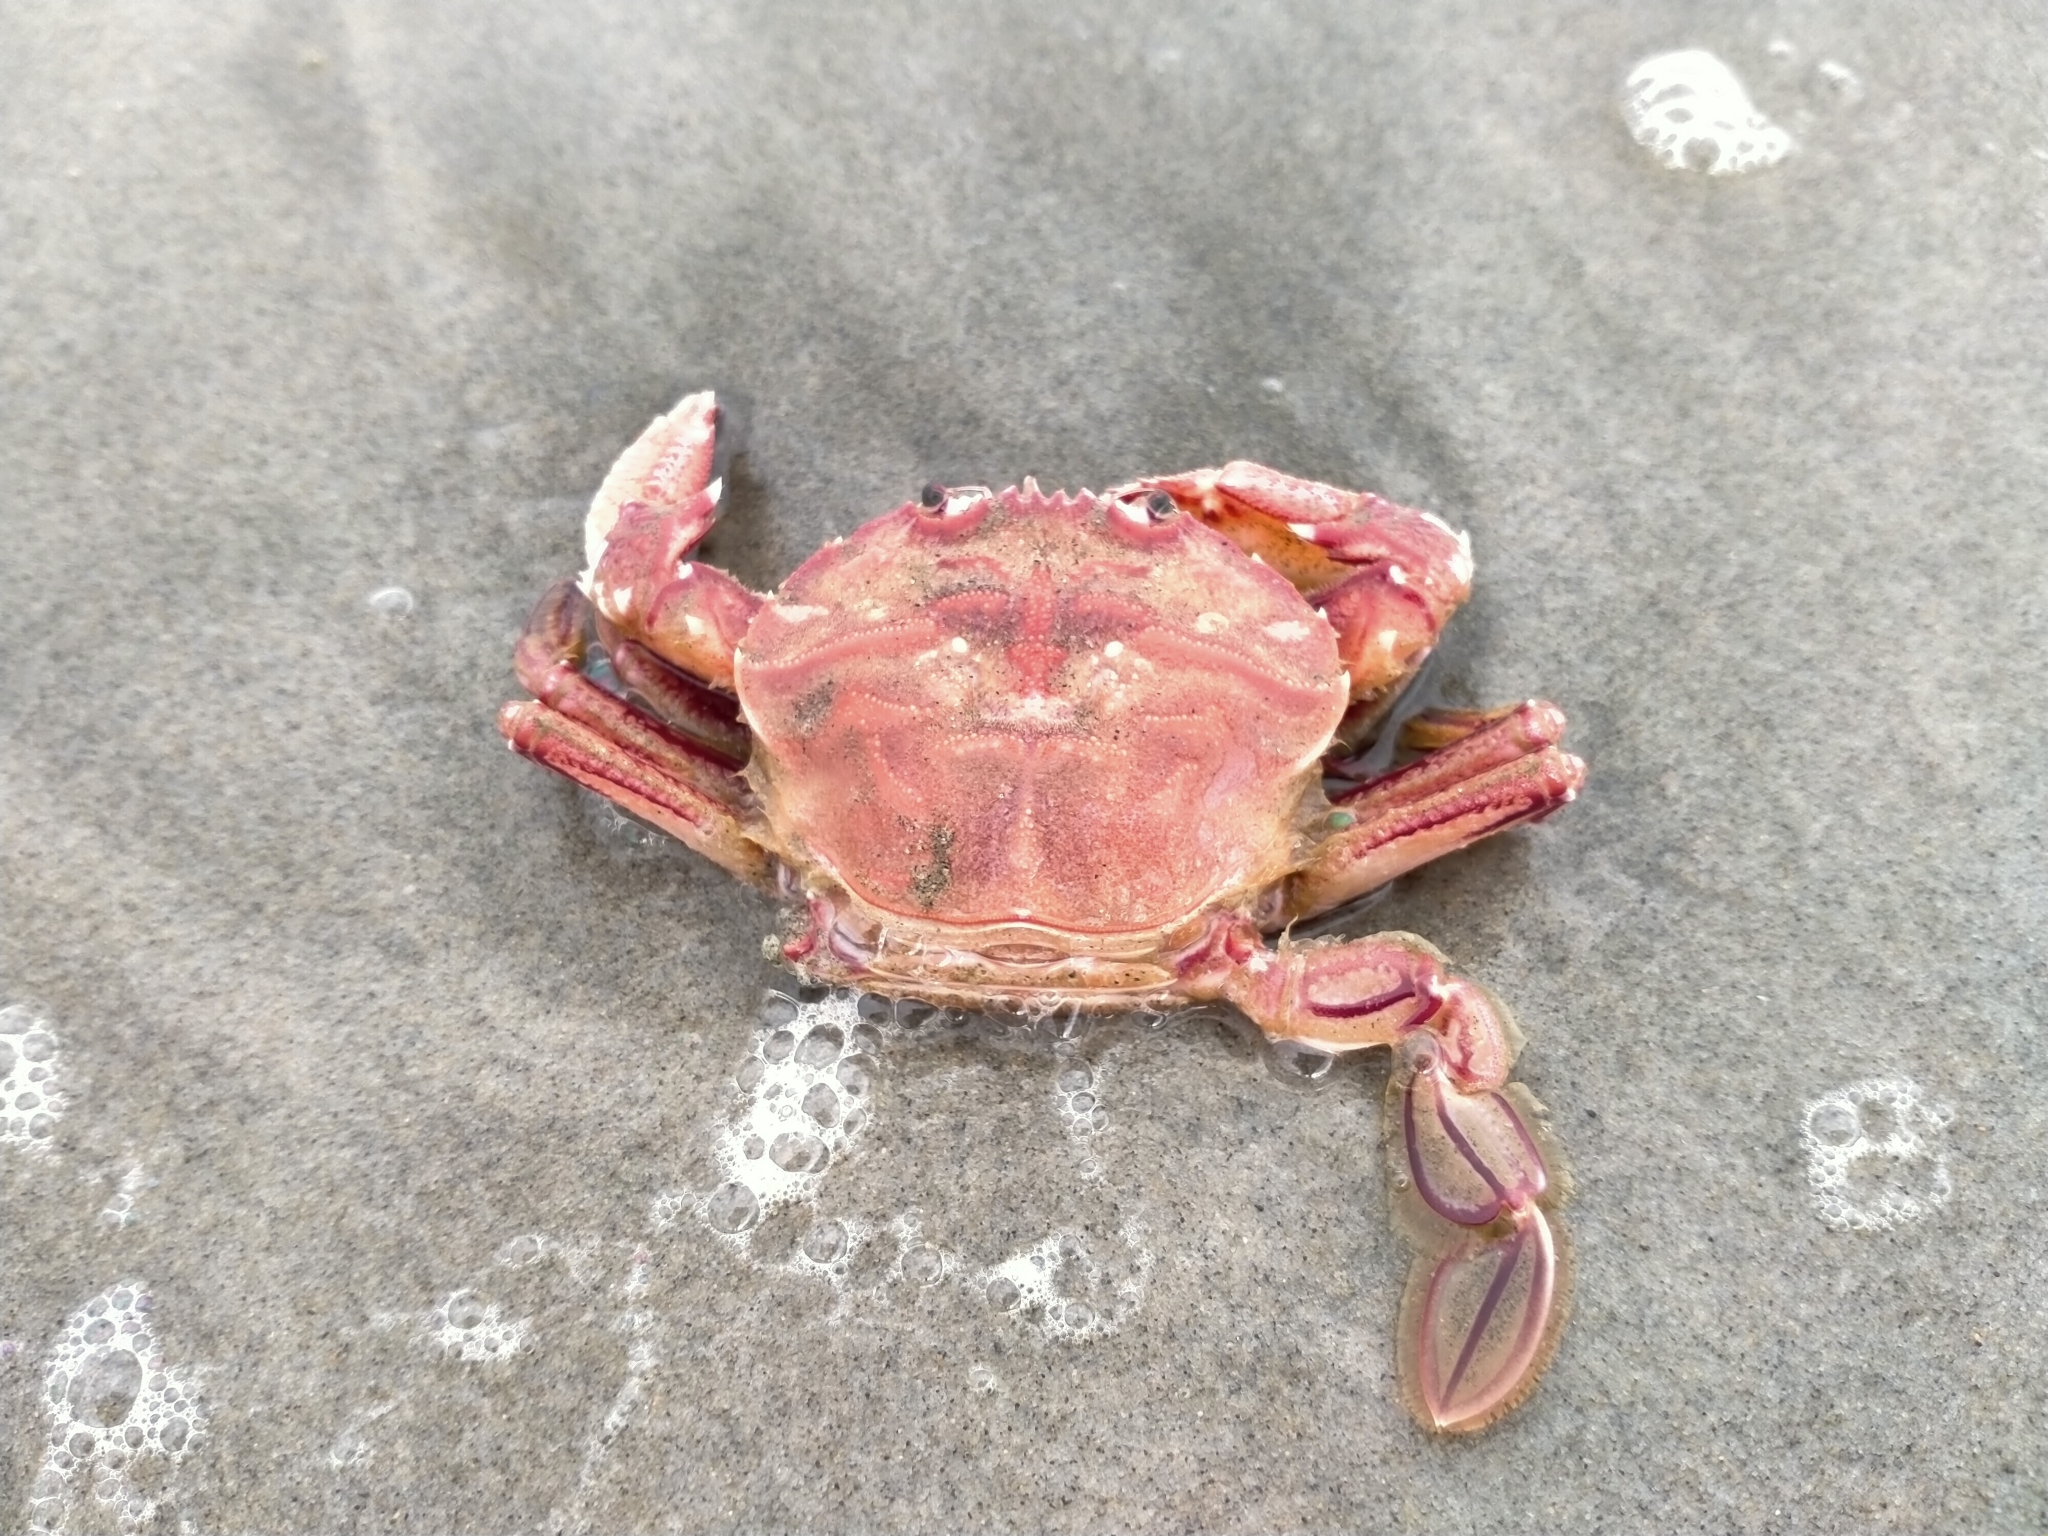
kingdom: Animalia
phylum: Arthropoda
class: Malacostraca
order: Decapoda
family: Geryonidae
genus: Nectocarcinus
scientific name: Nectocarcinus antarcticus
